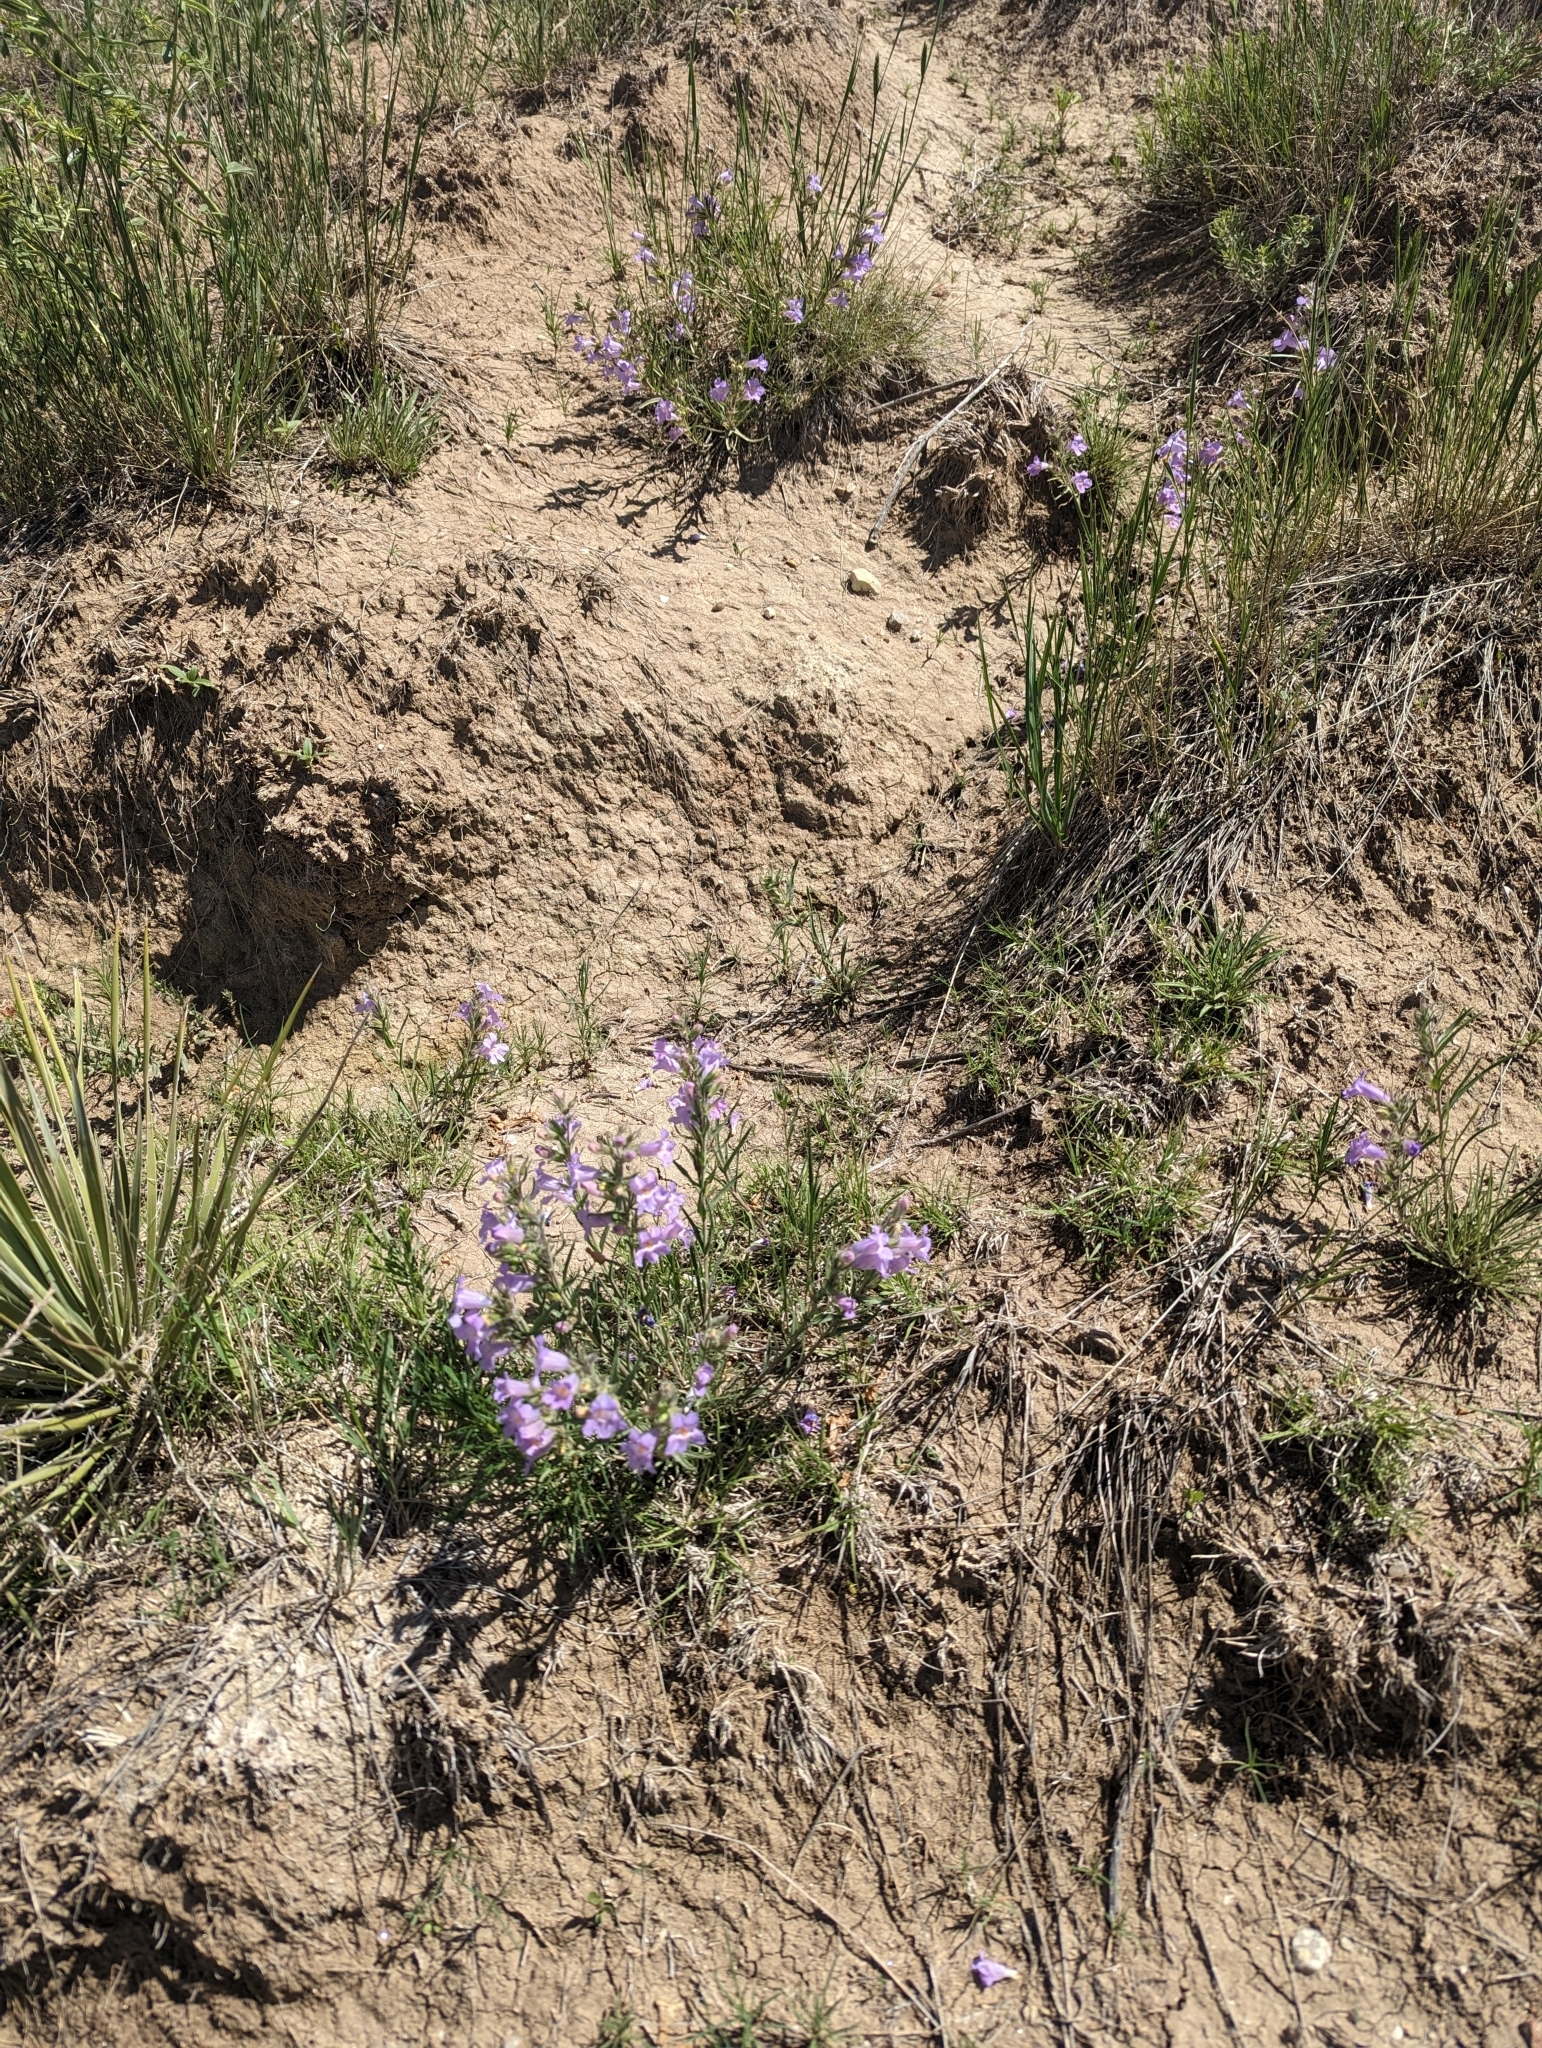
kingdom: Plantae
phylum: Tracheophyta
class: Magnoliopsida
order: Lamiales
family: Plantaginaceae
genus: Penstemon
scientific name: Penstemon secundiflorus
